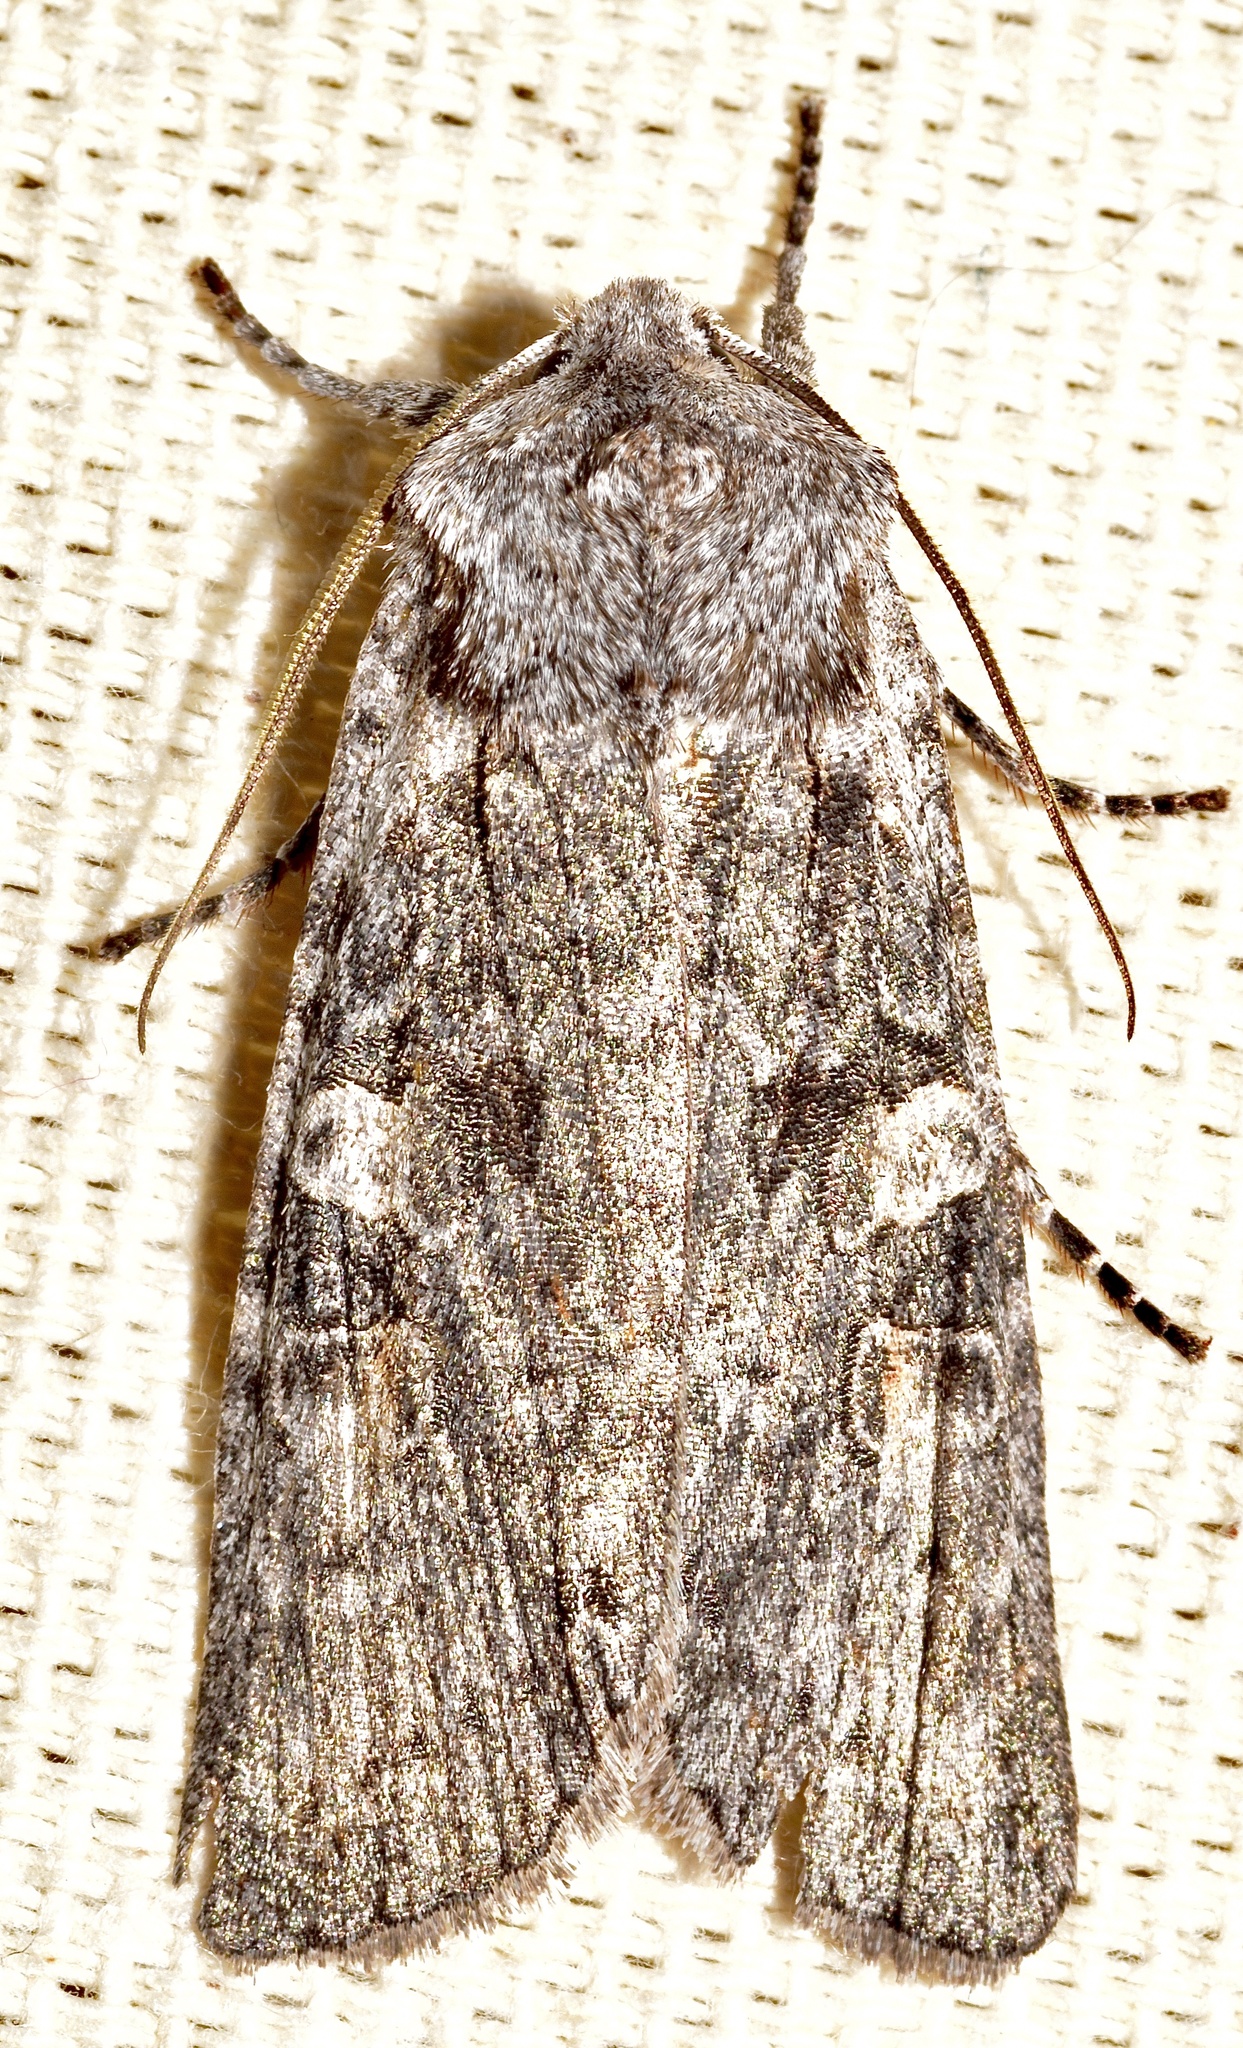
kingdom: Animalia
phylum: Arthropoda
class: Insecta
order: Lepidoptera
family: Noctuidae
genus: Lithophane
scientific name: Lithophane pertorrida
